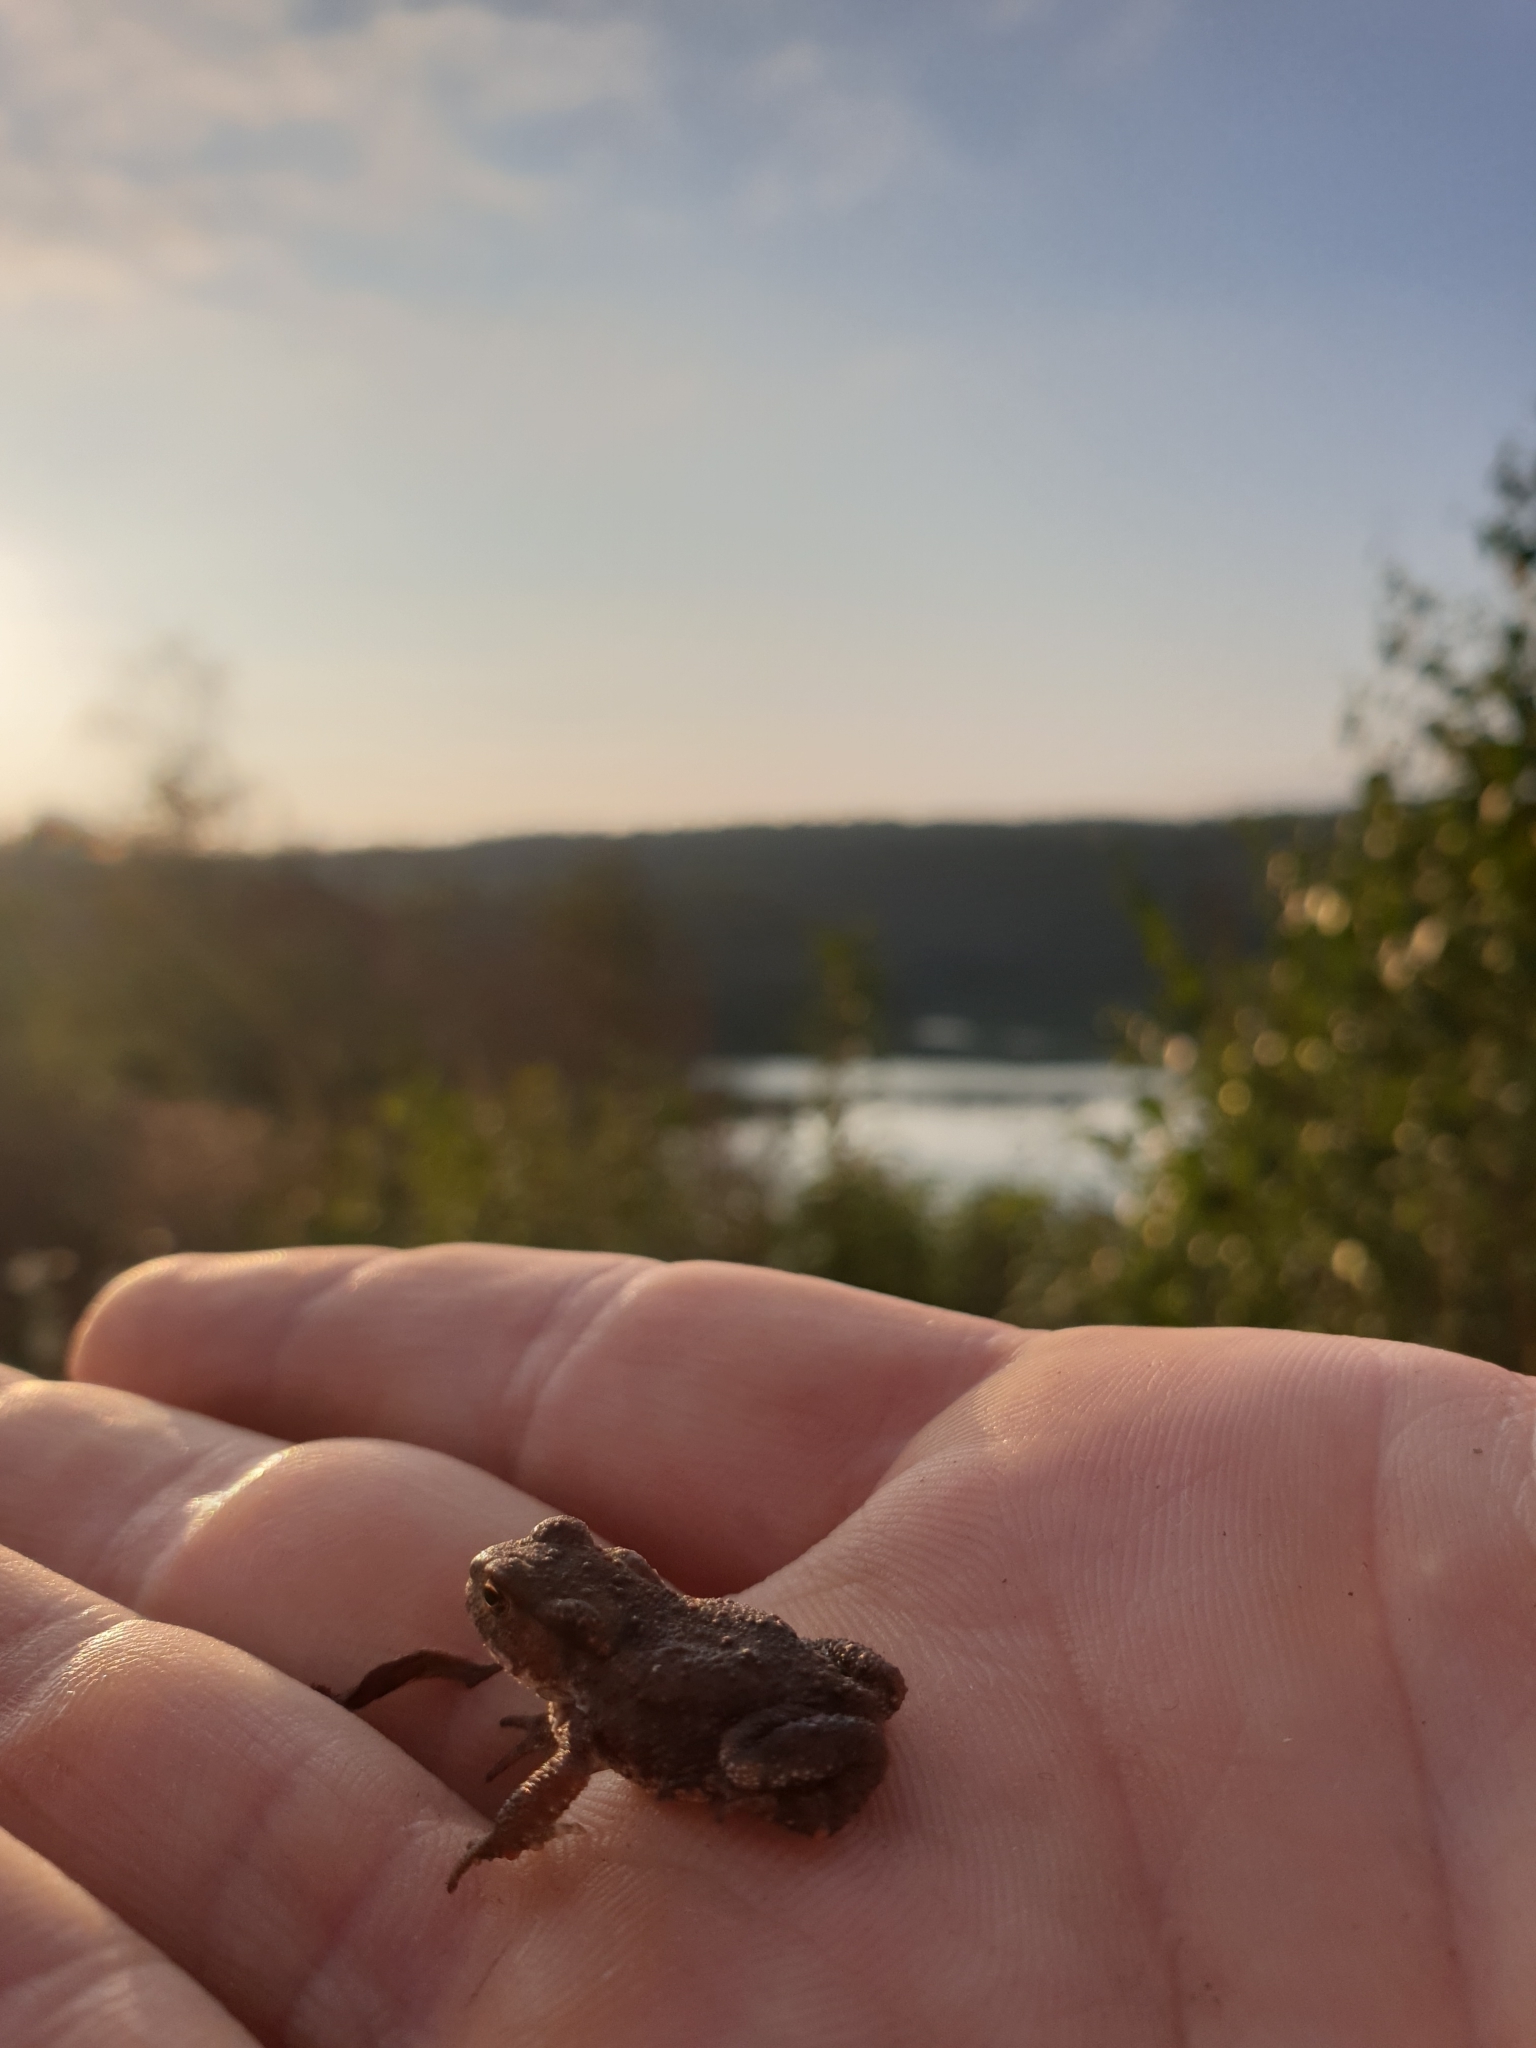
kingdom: Animalia
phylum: Chordata
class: Amphibia
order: Anura
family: Bufonidae
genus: Bufo
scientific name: Bufo bufo
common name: Common toad
